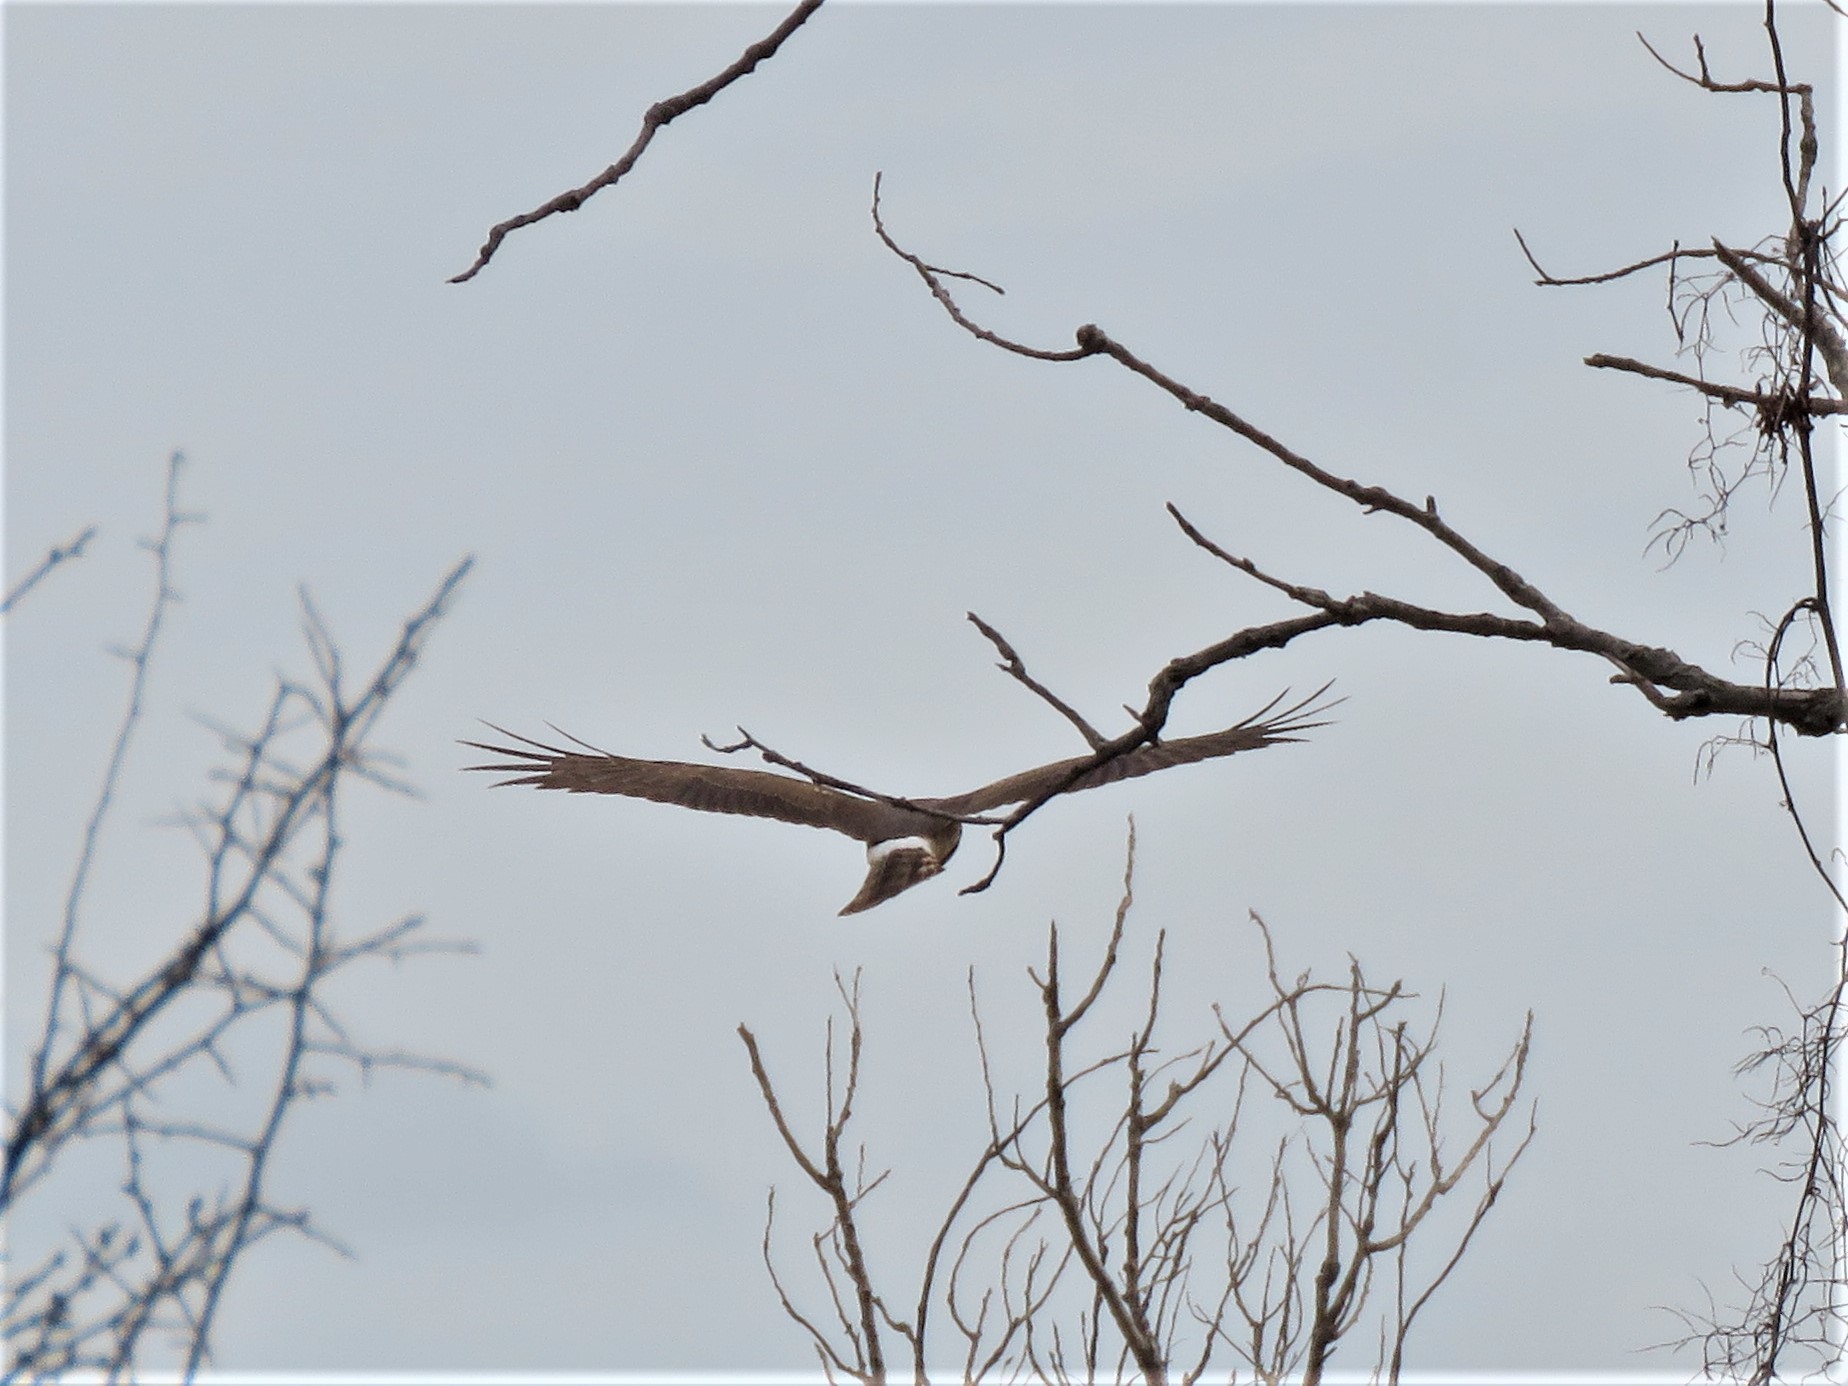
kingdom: Animalia
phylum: Chordata
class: Aves
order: Accipitriformes
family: Accipitridae
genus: Circus
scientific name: Circus cyaneus
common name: Hen harrier
